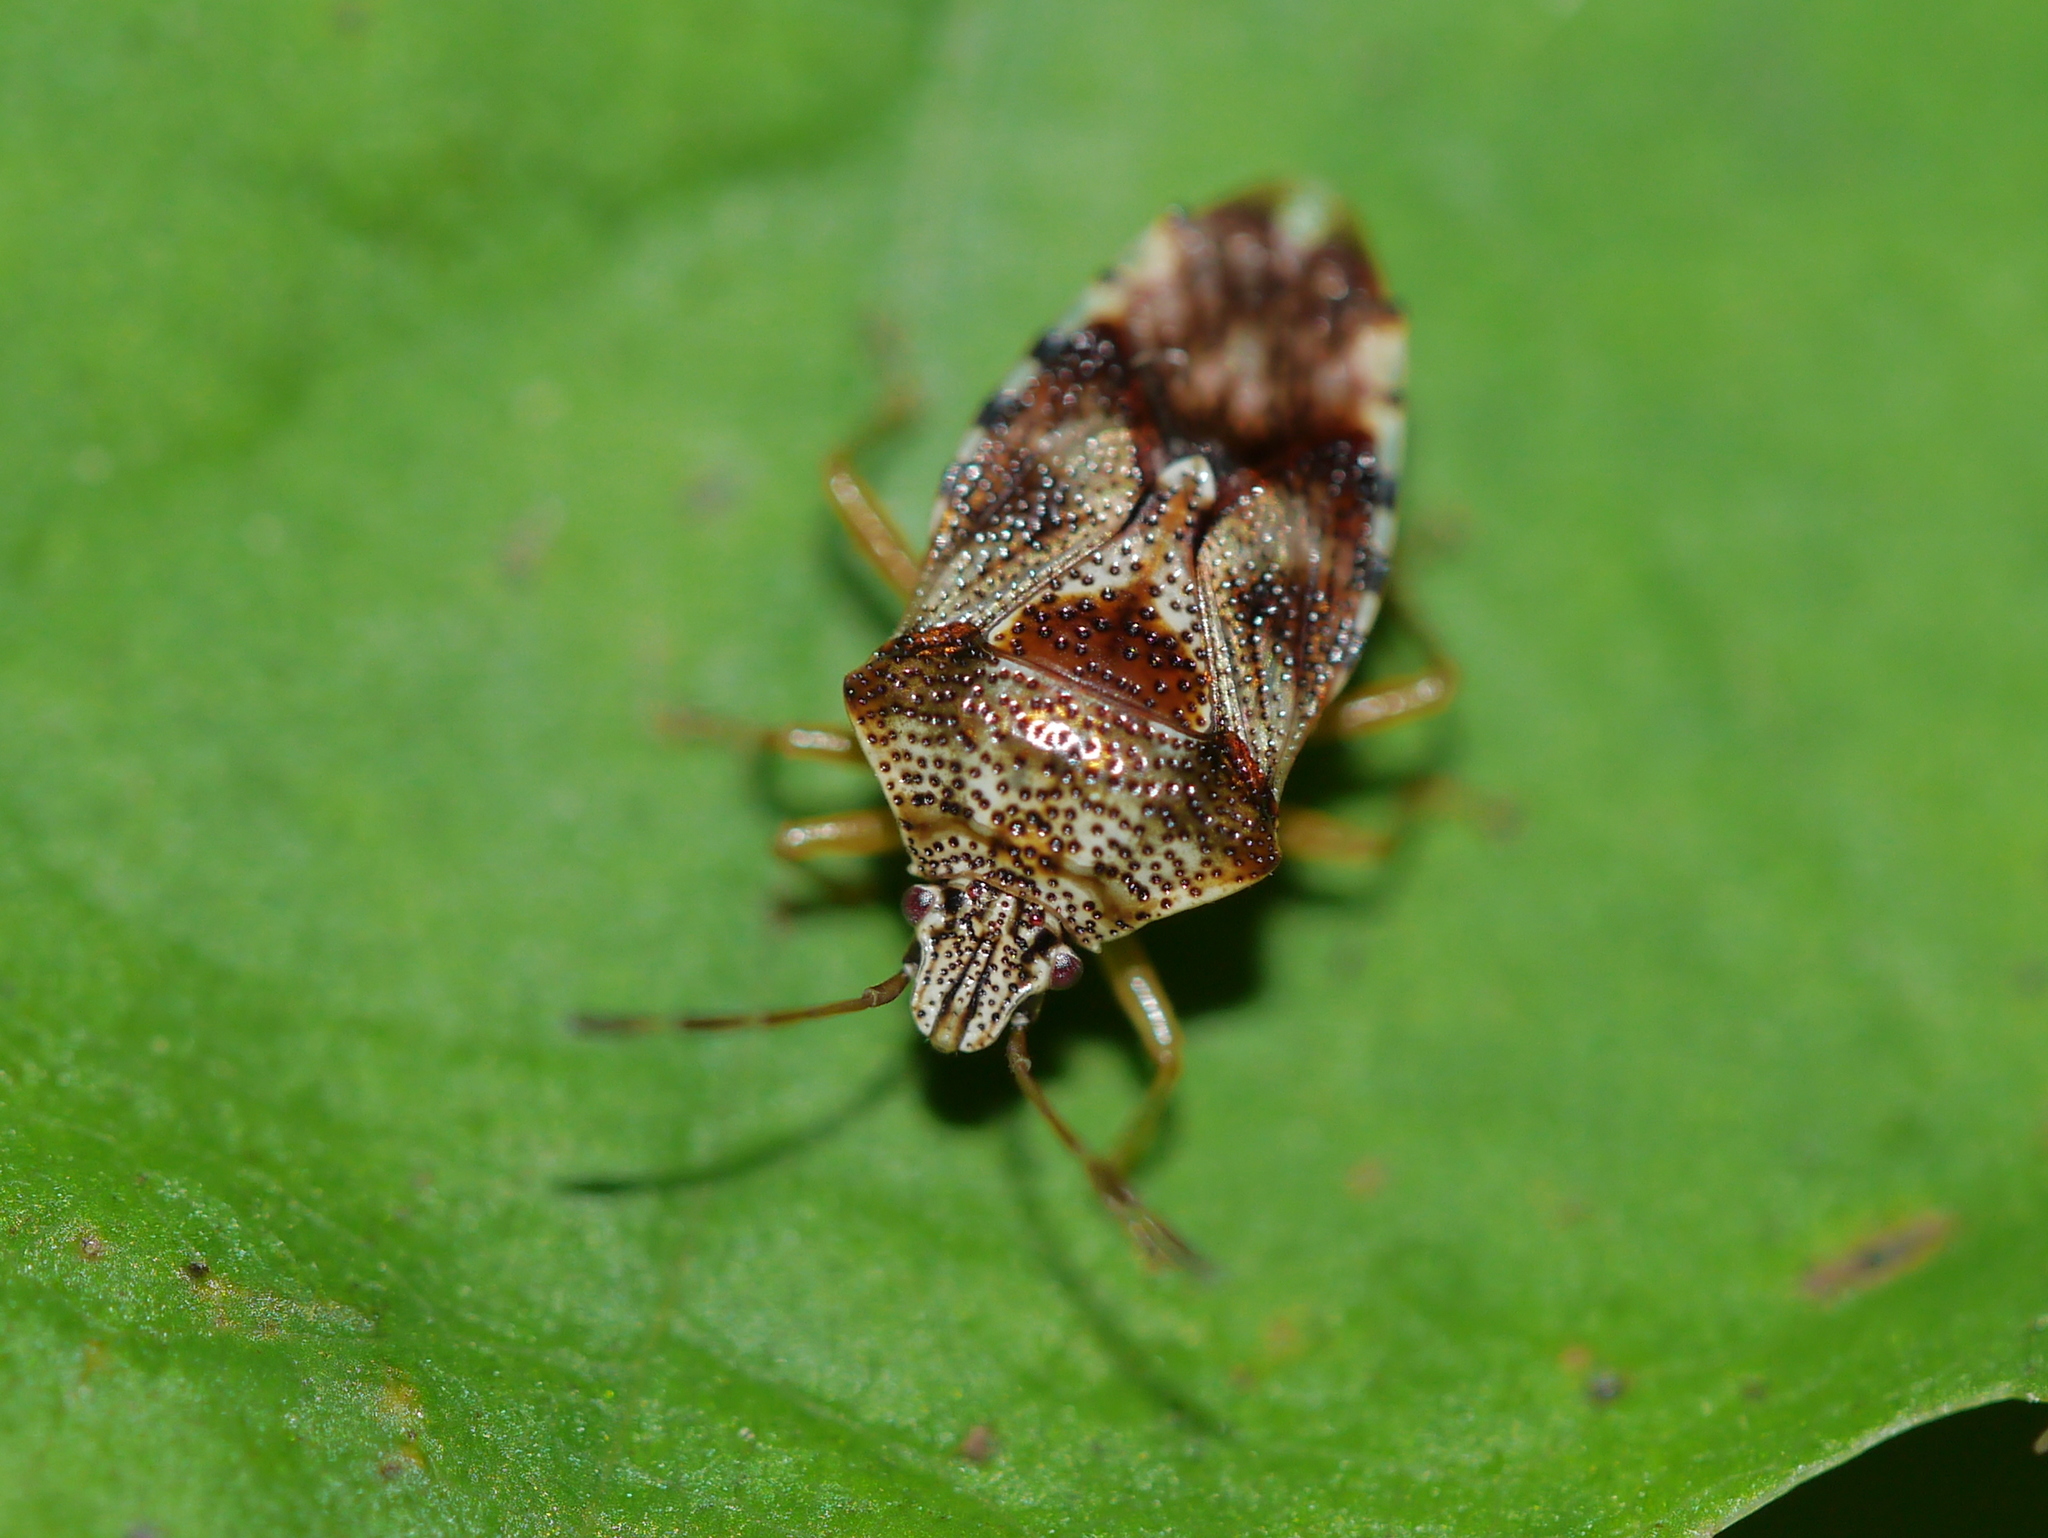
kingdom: Animalia
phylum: Arthropoda
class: Insecta
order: Hemiptera
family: Acanthosomatidae
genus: Elasmucha
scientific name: Elasmucha lateralis
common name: Shield bug
